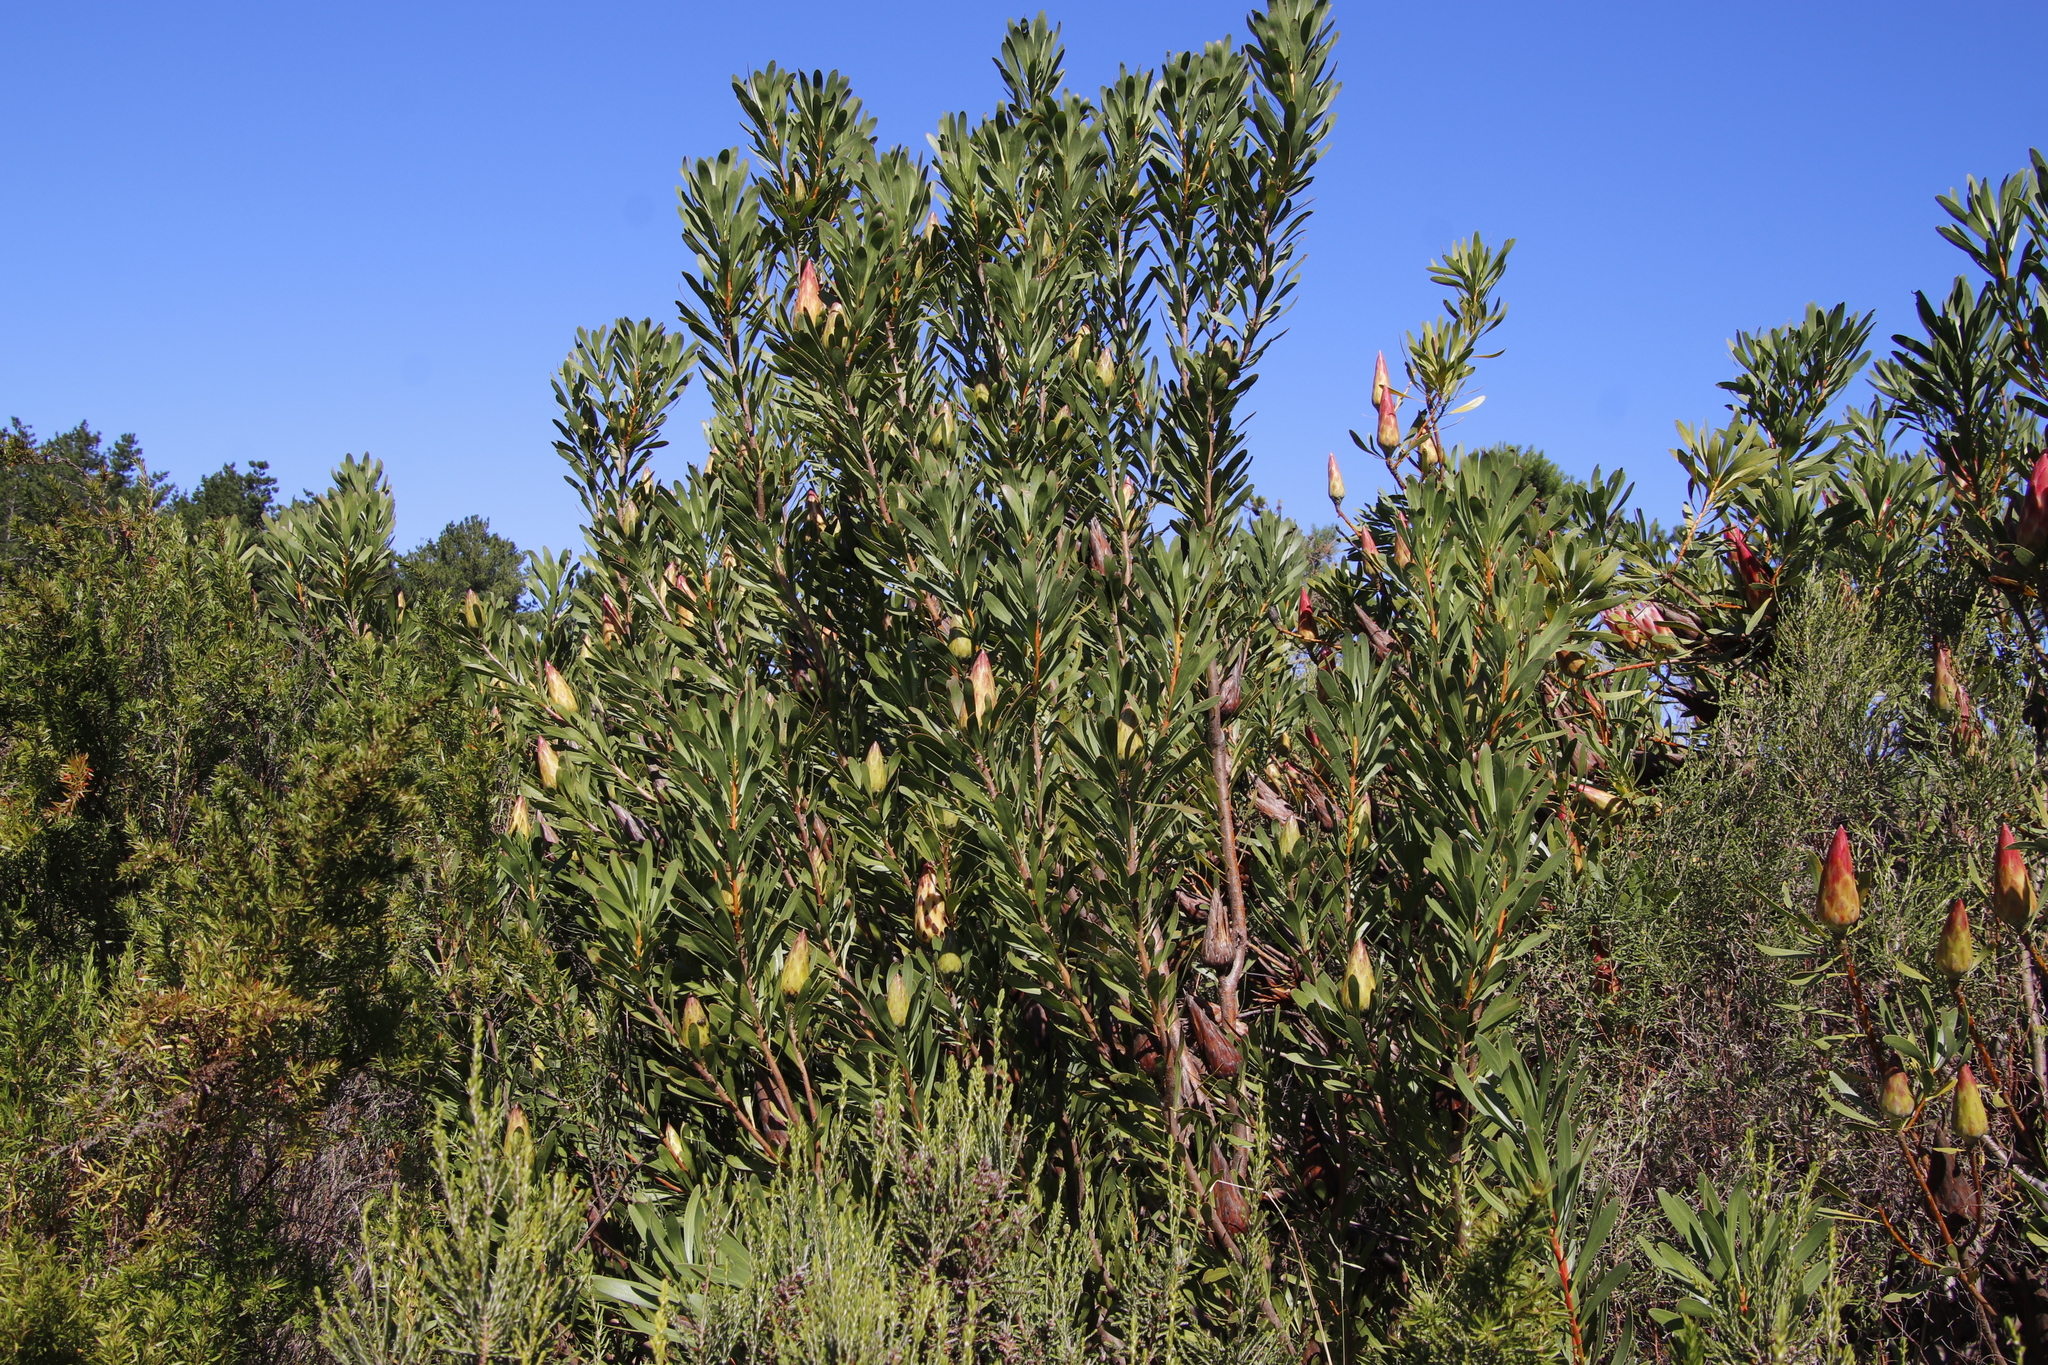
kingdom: Plantae
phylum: Tracheophyta
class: Magnoliopsida
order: Proteales
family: Proteaceae
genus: Protea
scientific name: Protea repens
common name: Sugarbush
